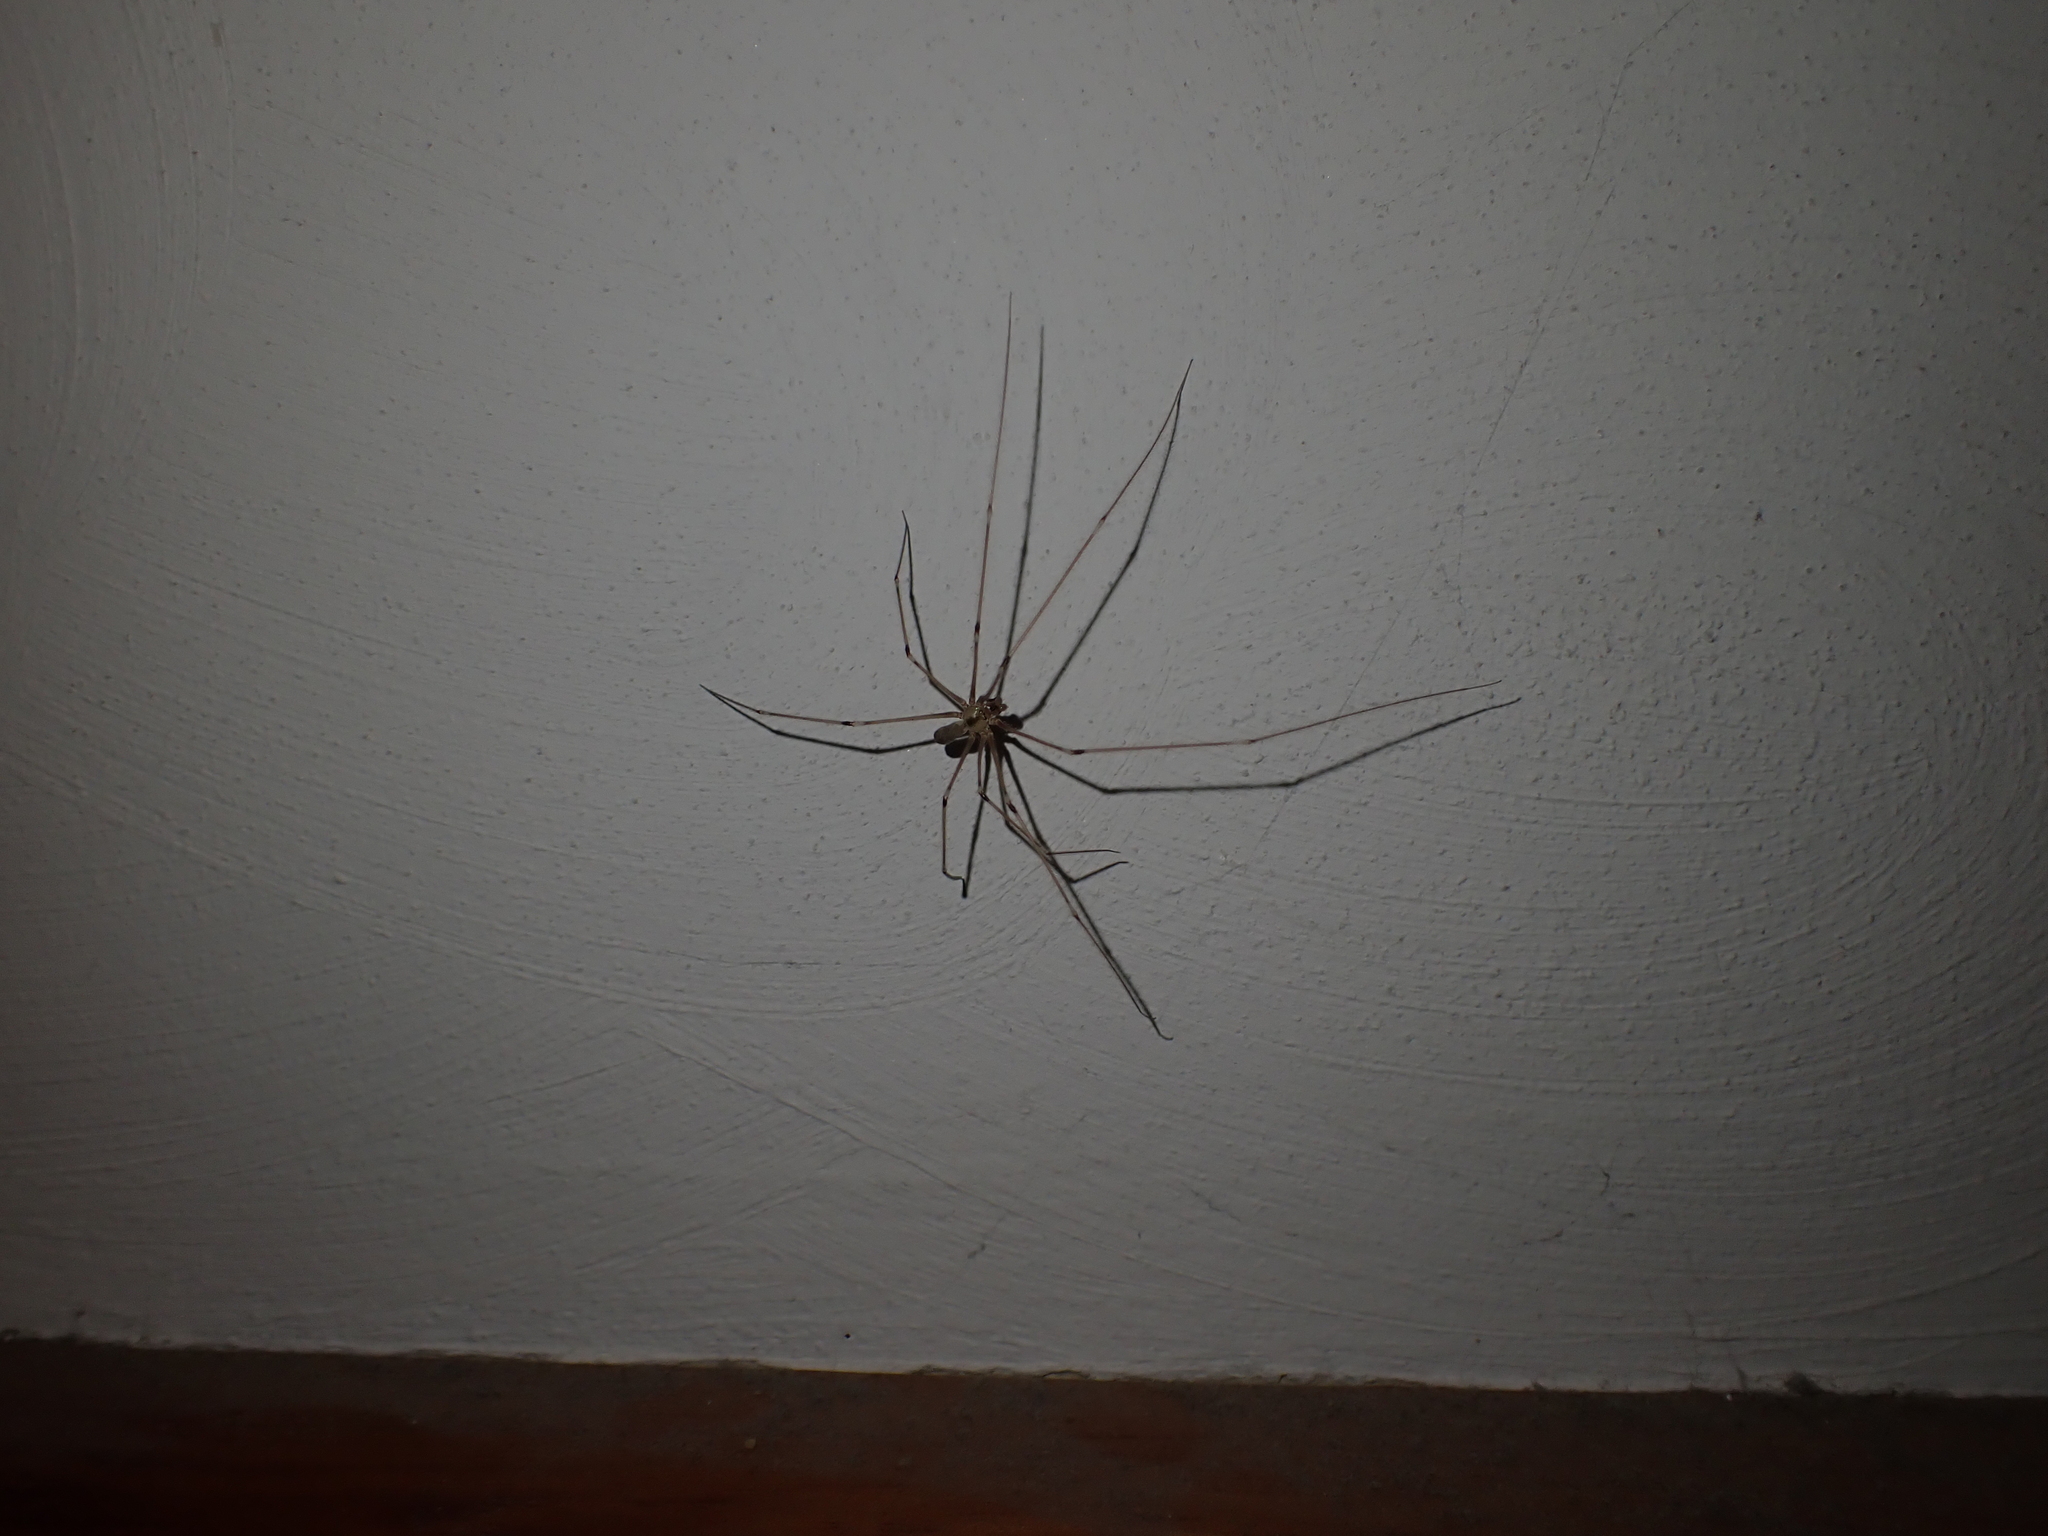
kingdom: Animalia
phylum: Arthropoda
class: Arachnida
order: Araneae
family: Pholcidae
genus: Pholcus
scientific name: Pholcus phalangioides
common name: Longbodied cellar spider
